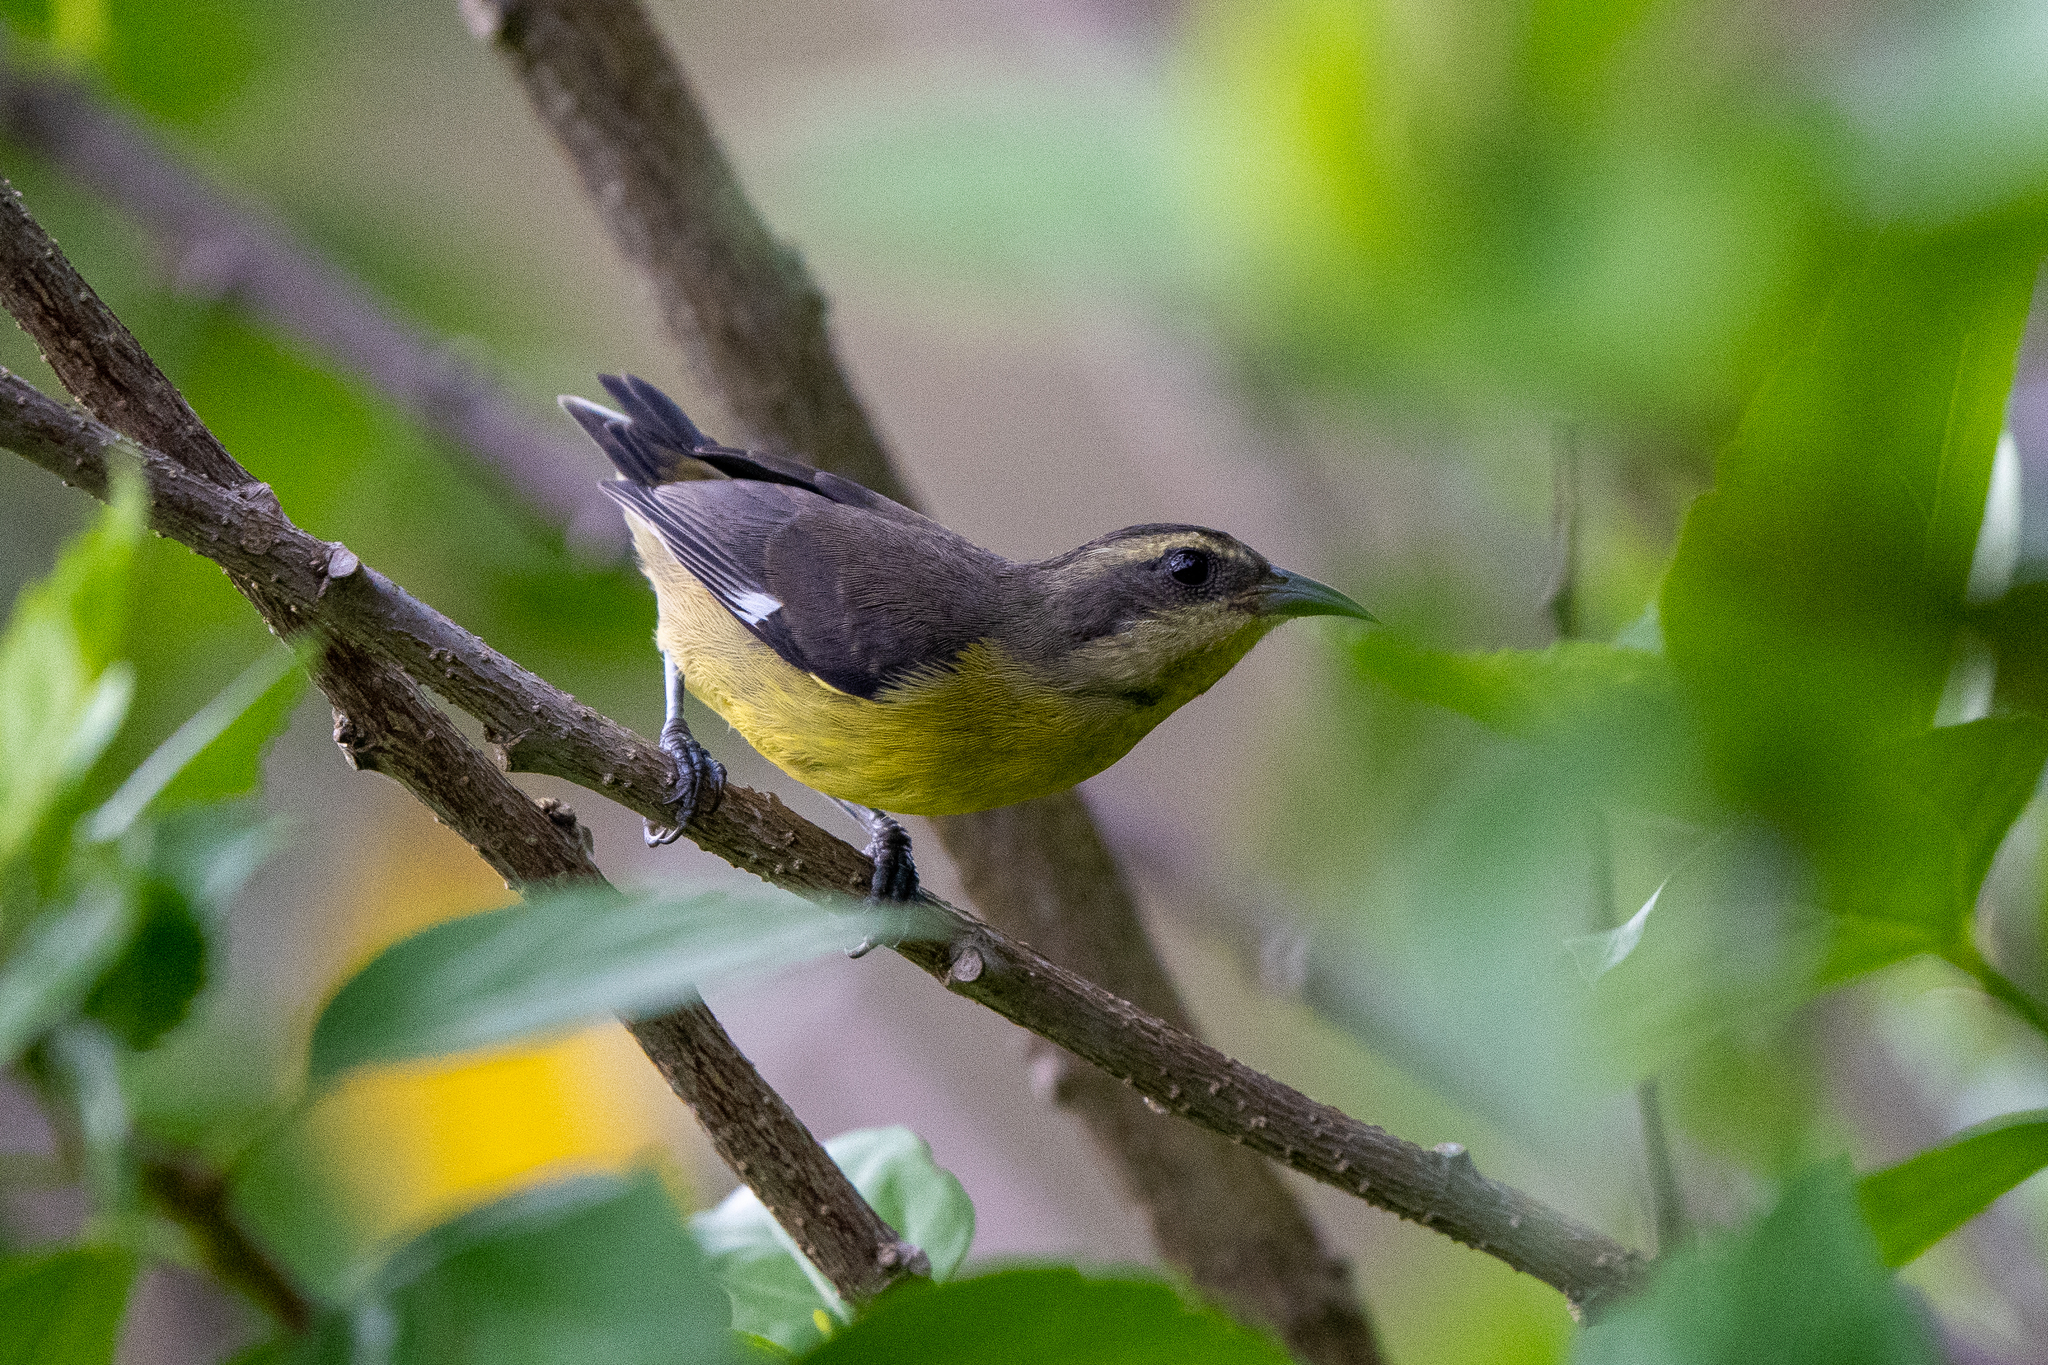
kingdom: Animalia
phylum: Chordata
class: Aves
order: Passeriformes
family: Thraupidae
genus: Coereba
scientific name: Coereba flaveola
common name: Bananaquit
